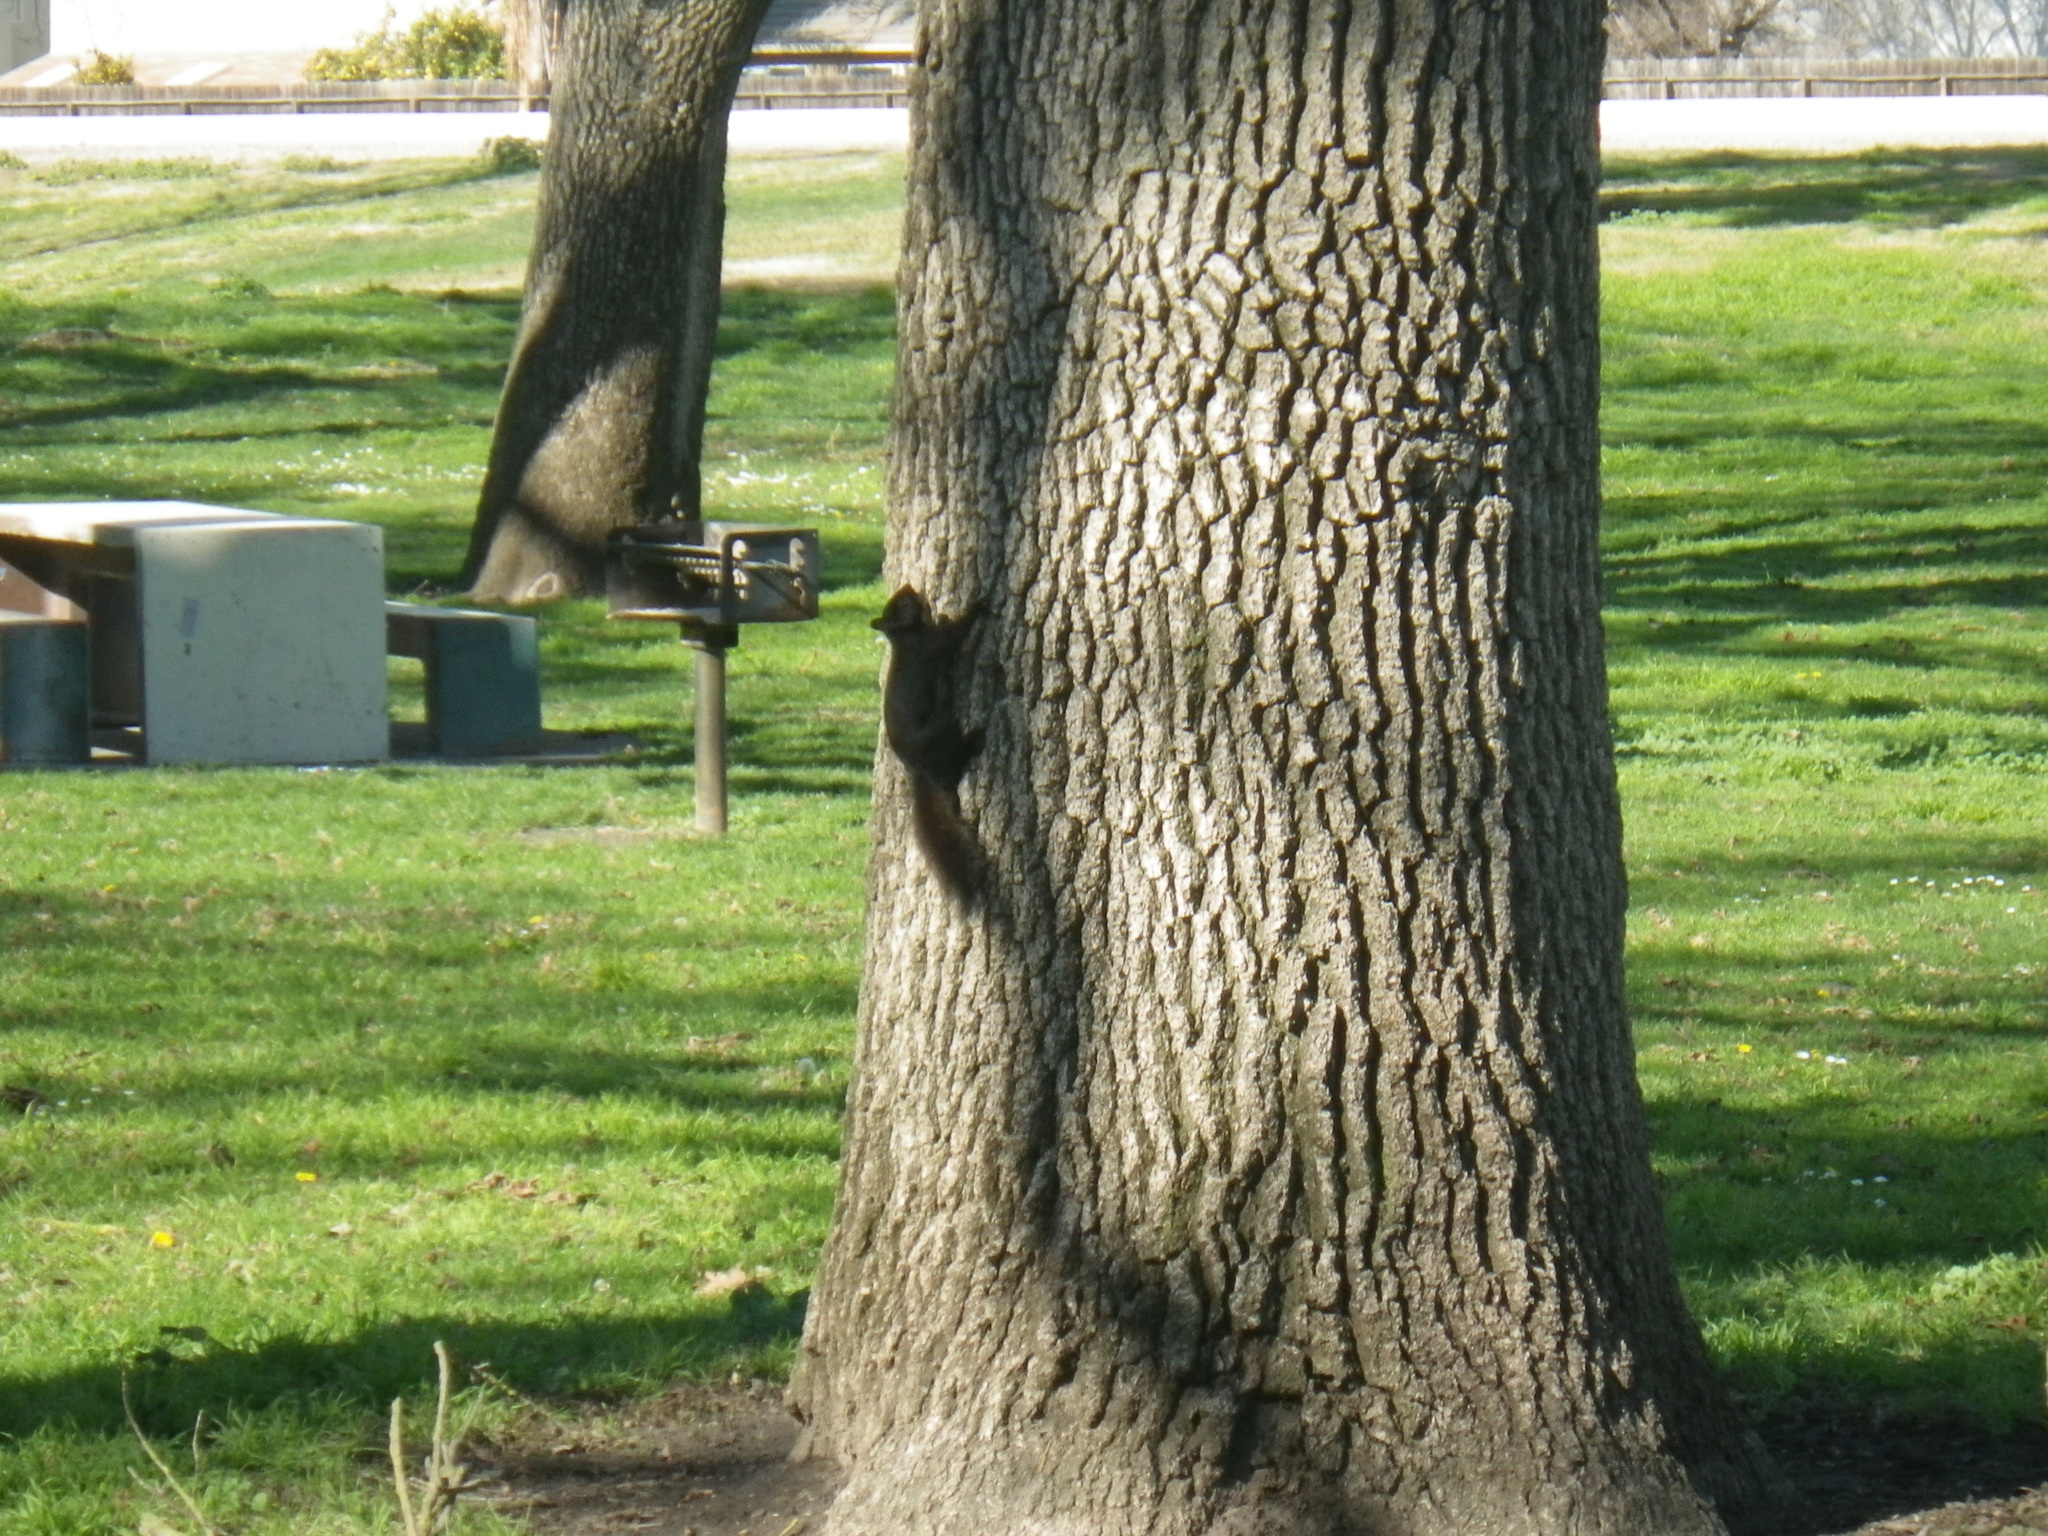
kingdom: Animalia
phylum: Chordata
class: Mammalia
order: Rodentia
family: Sciuridae
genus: Sciurus
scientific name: Sciurus carolinensis
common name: Eastern gray squirrel
